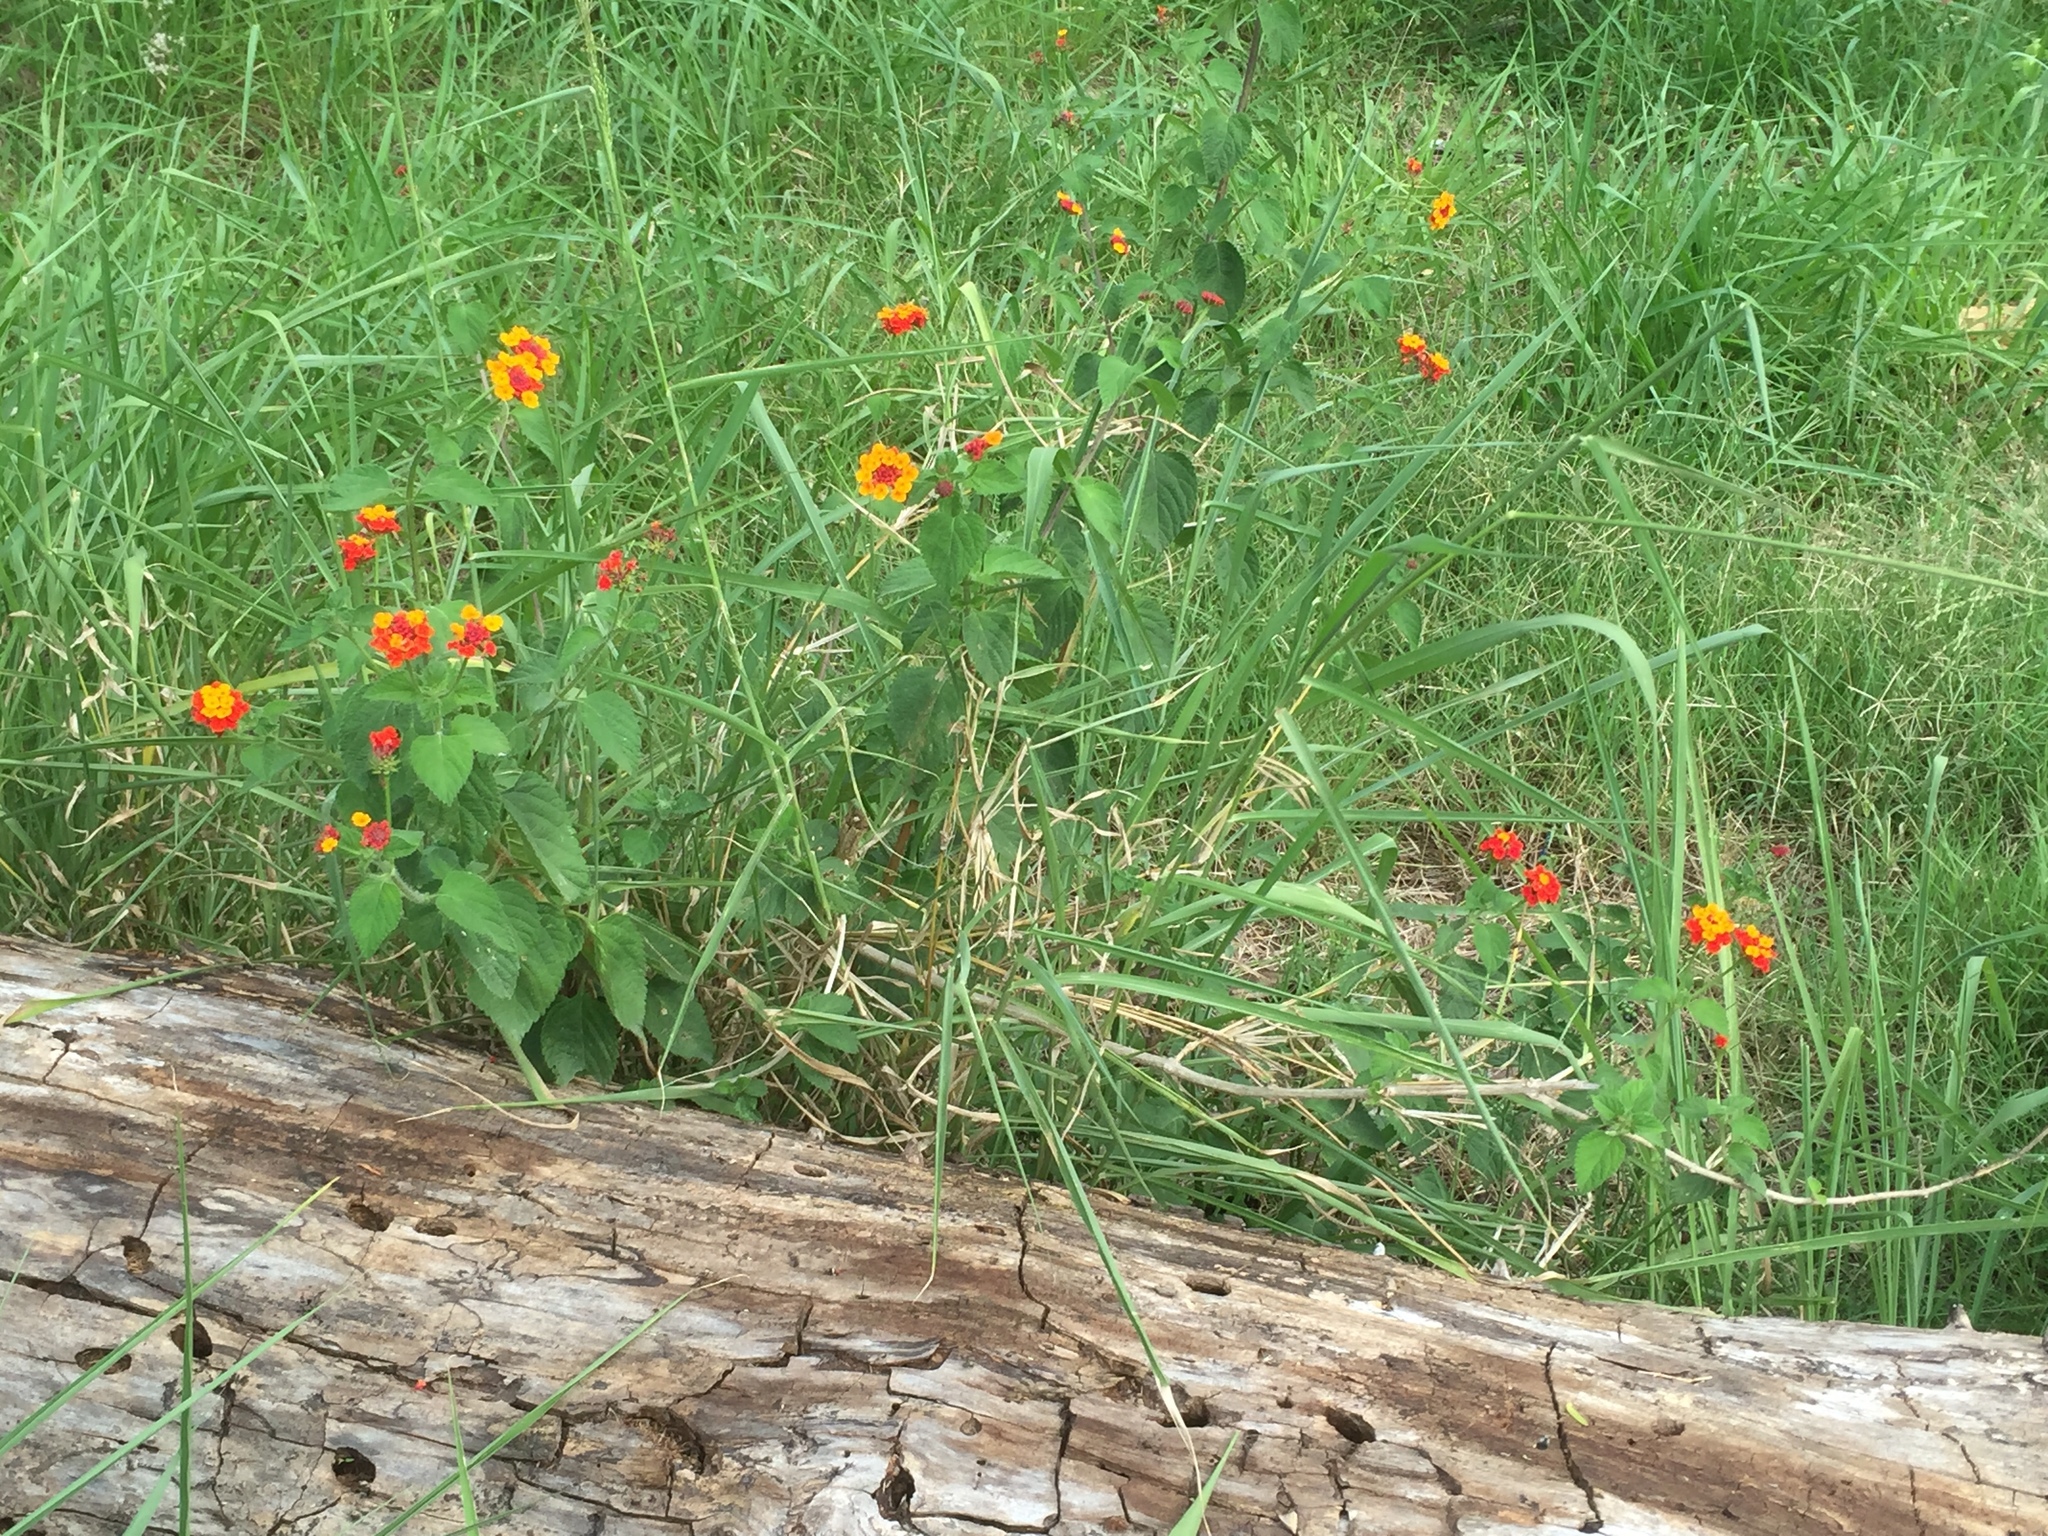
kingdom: Plantae
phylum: Tracheophyta
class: Magnoliopsida
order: Lamiales
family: Verbenaceae
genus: Lantana
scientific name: Lantana camara
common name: Lantana
